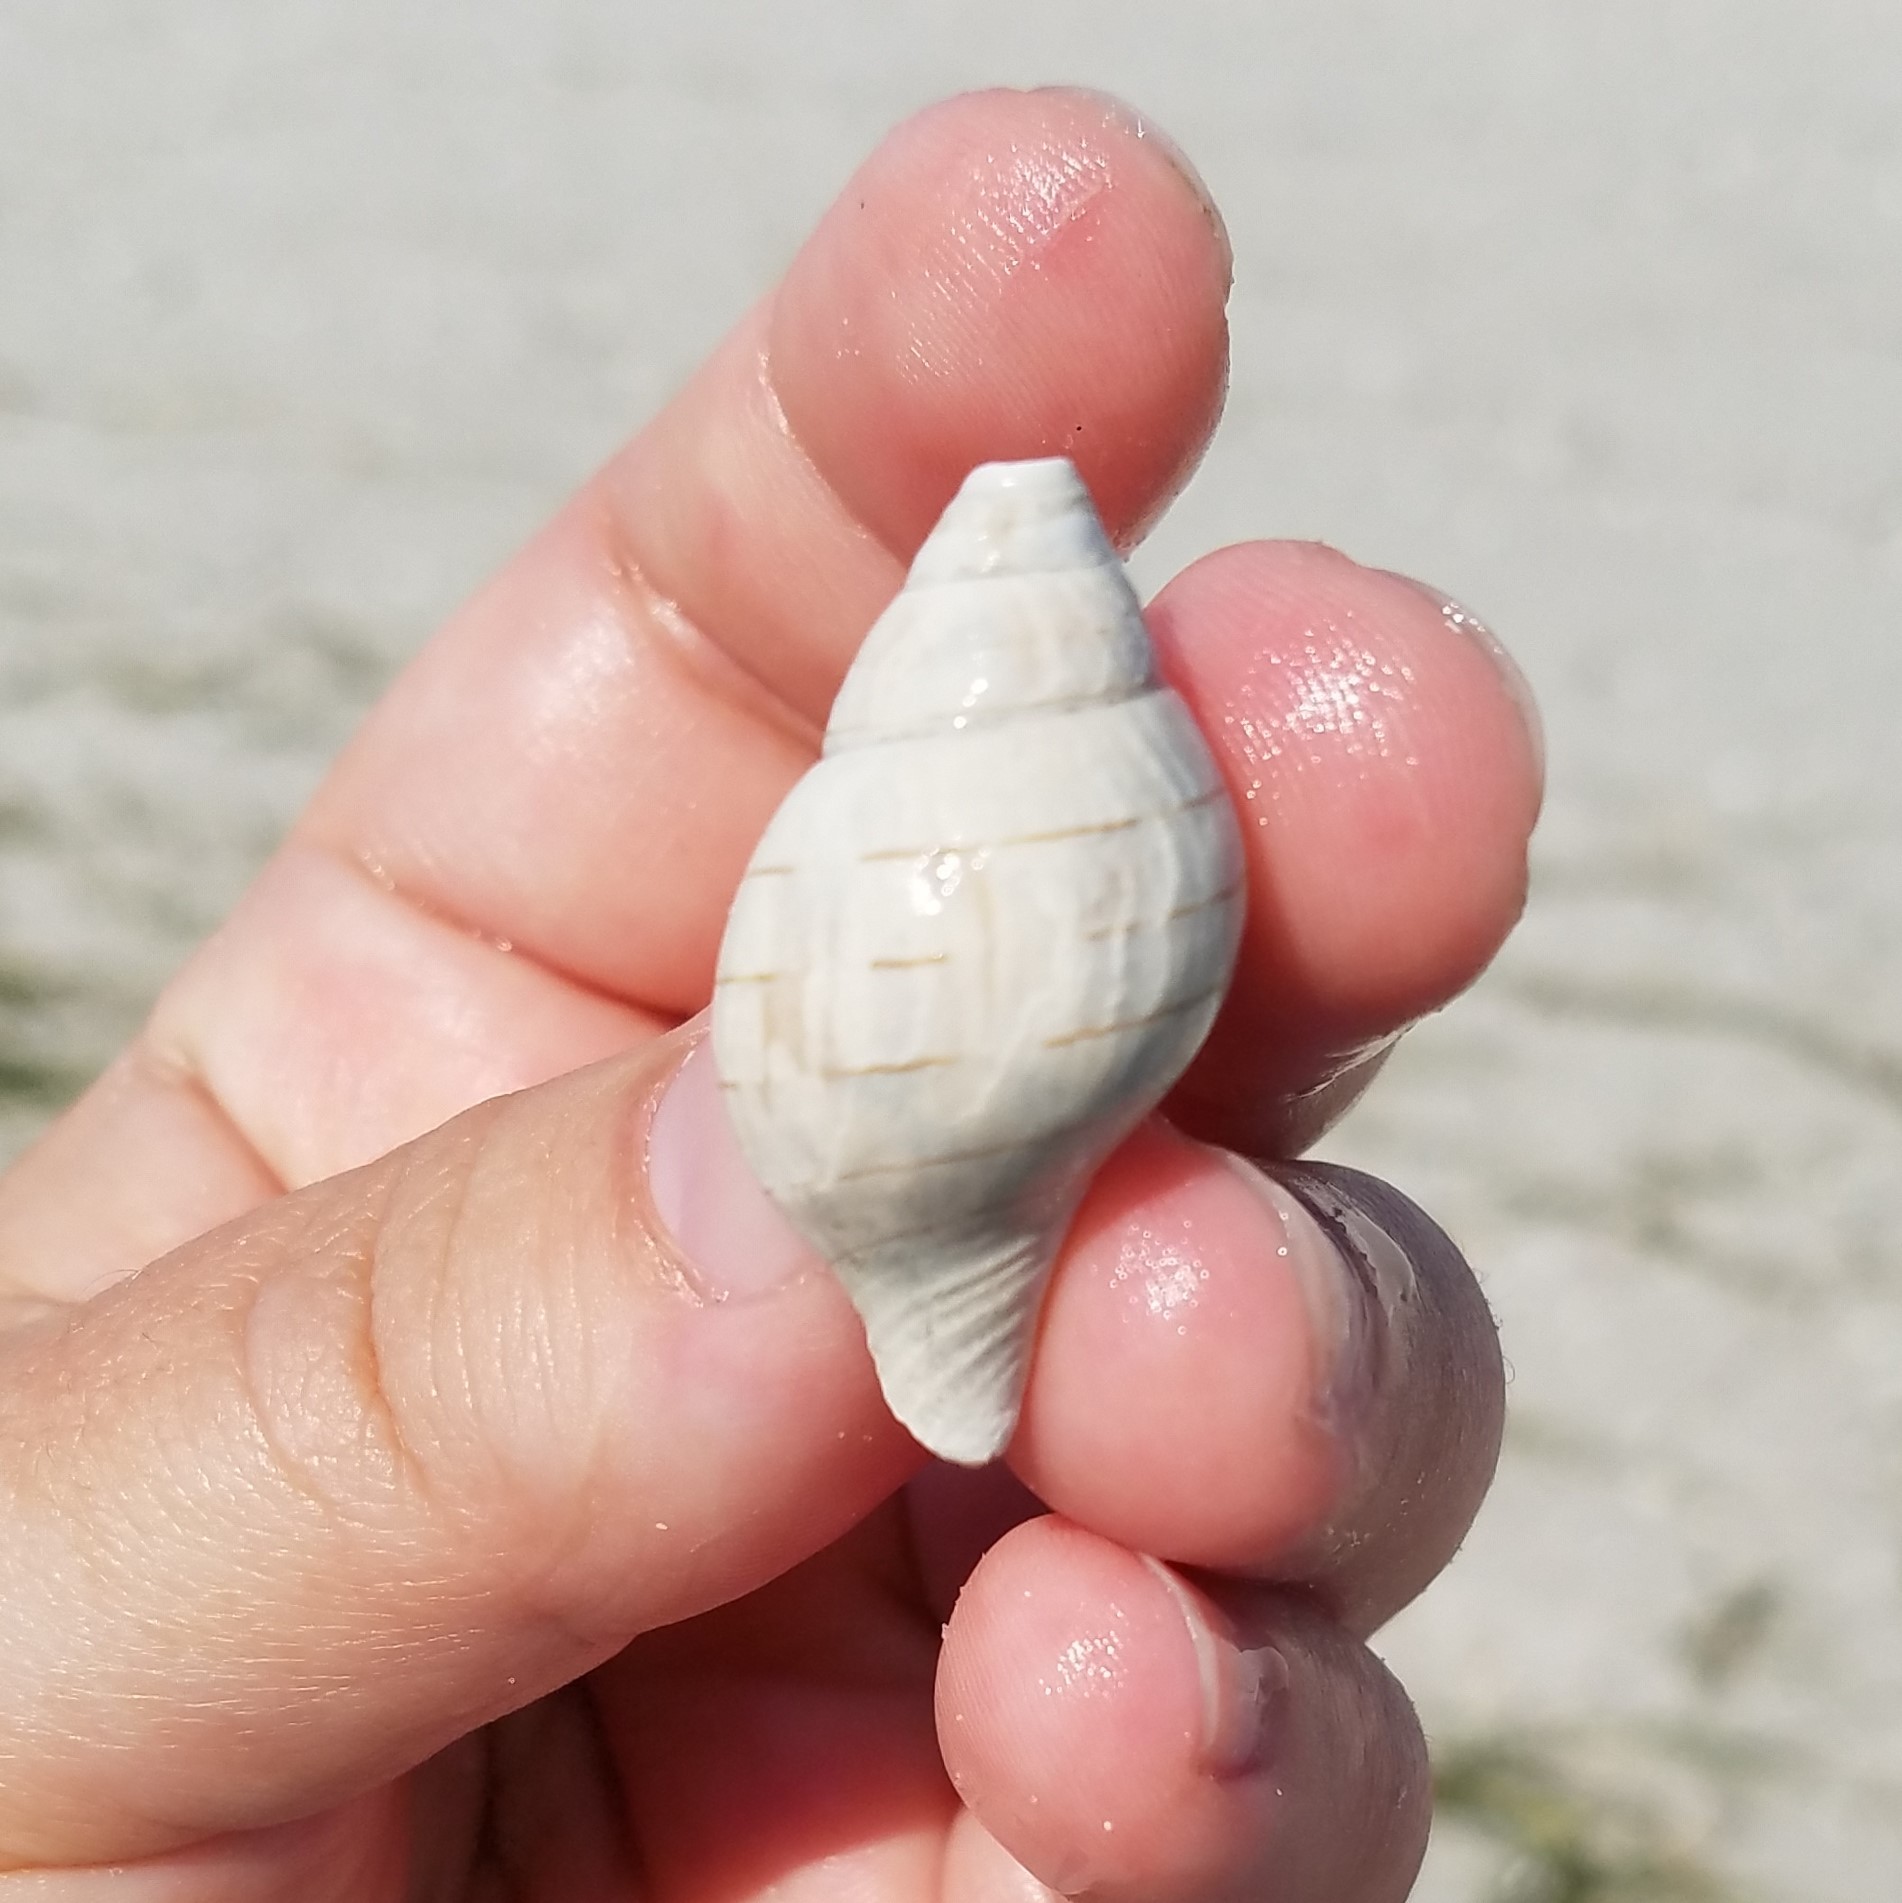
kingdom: Animalia
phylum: Mollusca
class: Gastropoda
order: Neogastropoda
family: Fasciolariidae
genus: Cinctura
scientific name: Cinctura hunteria
